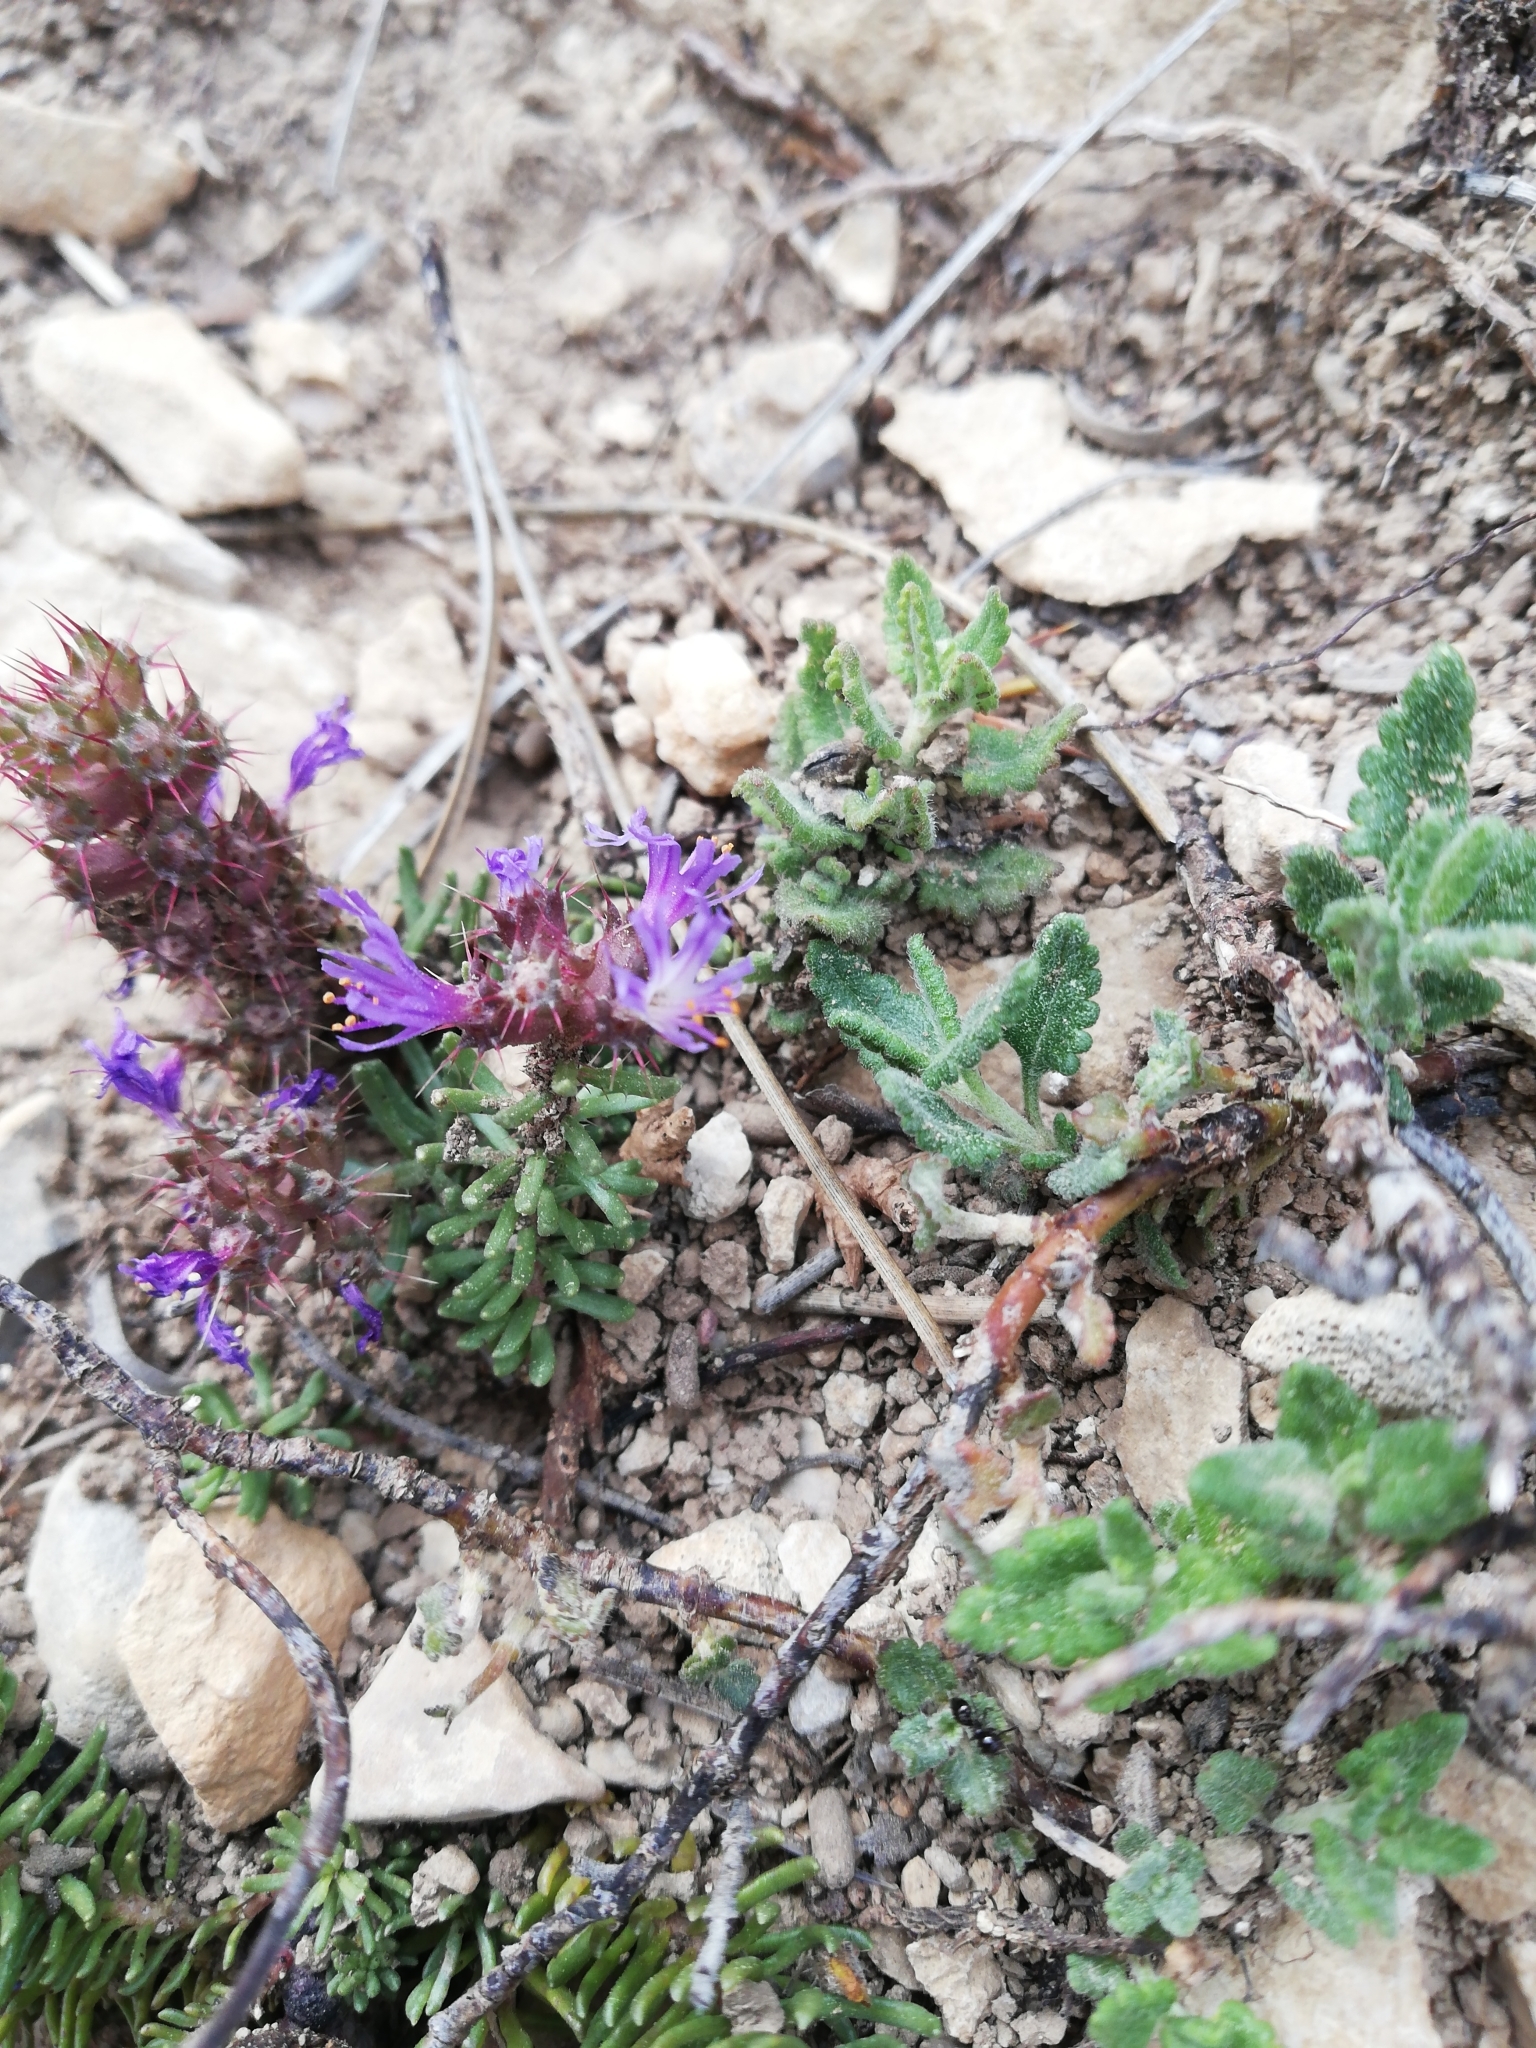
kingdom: Plantae
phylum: Tracheophyta
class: Magnoliopsida
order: Ericales
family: Primulaceae
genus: Coris
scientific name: Coris monspeliensis
